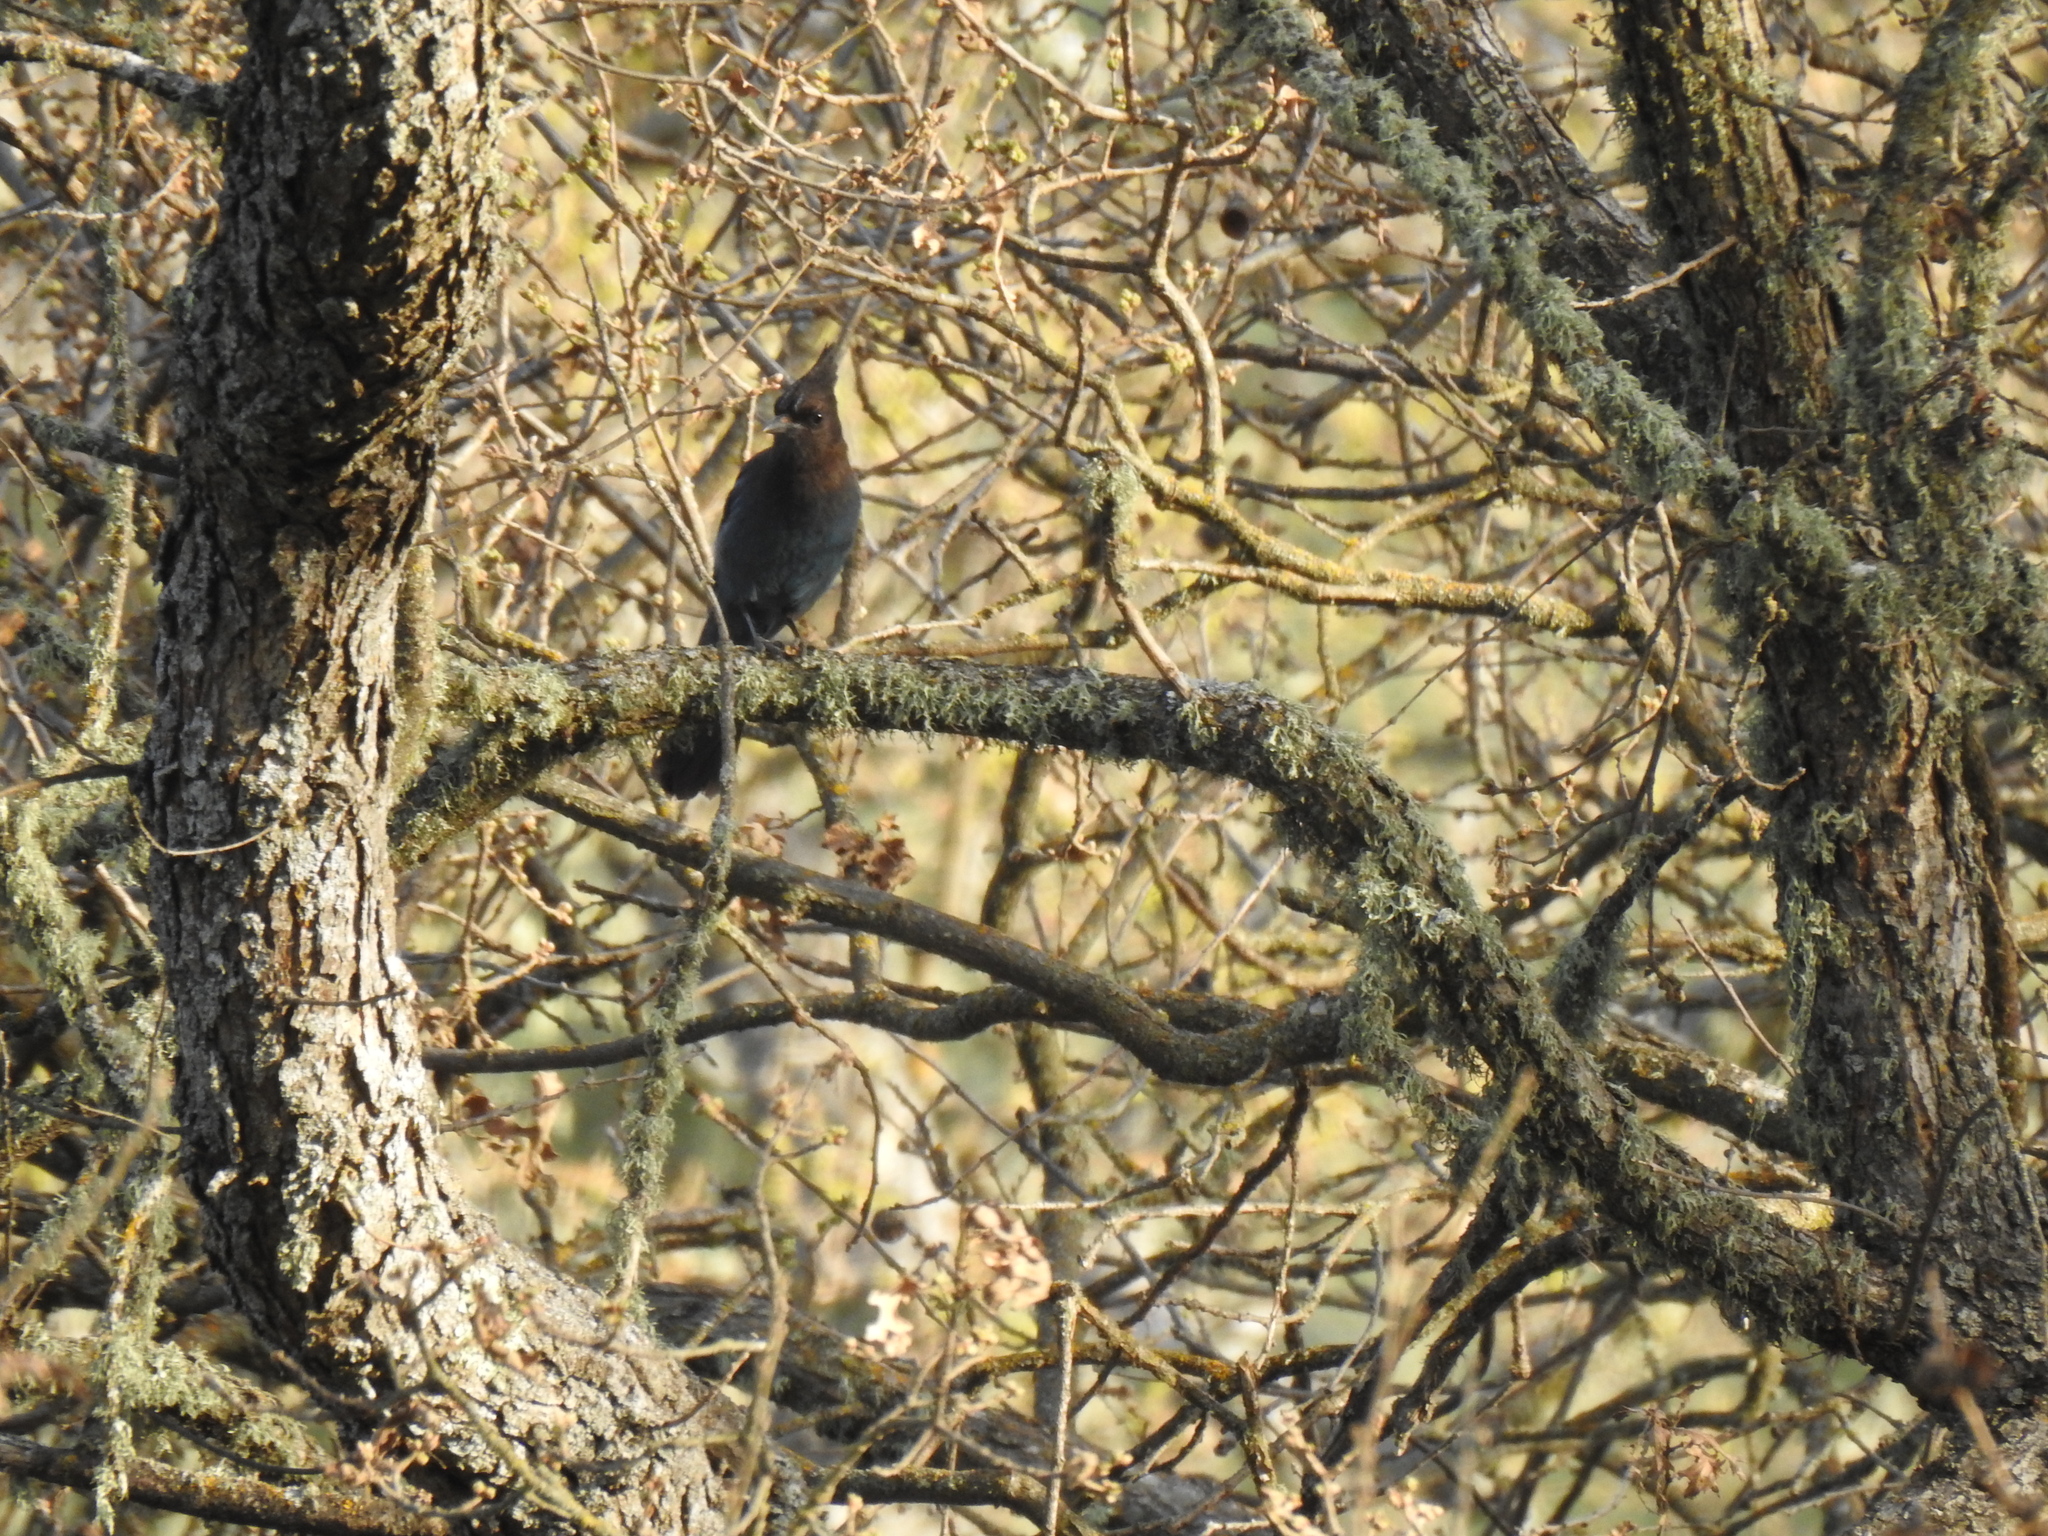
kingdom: Animalia
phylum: Chordata
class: Aves
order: Passeriformes
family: Corvidae
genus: Cyanocitta
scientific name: Cyanocitta stelleri
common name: Steller's jay
